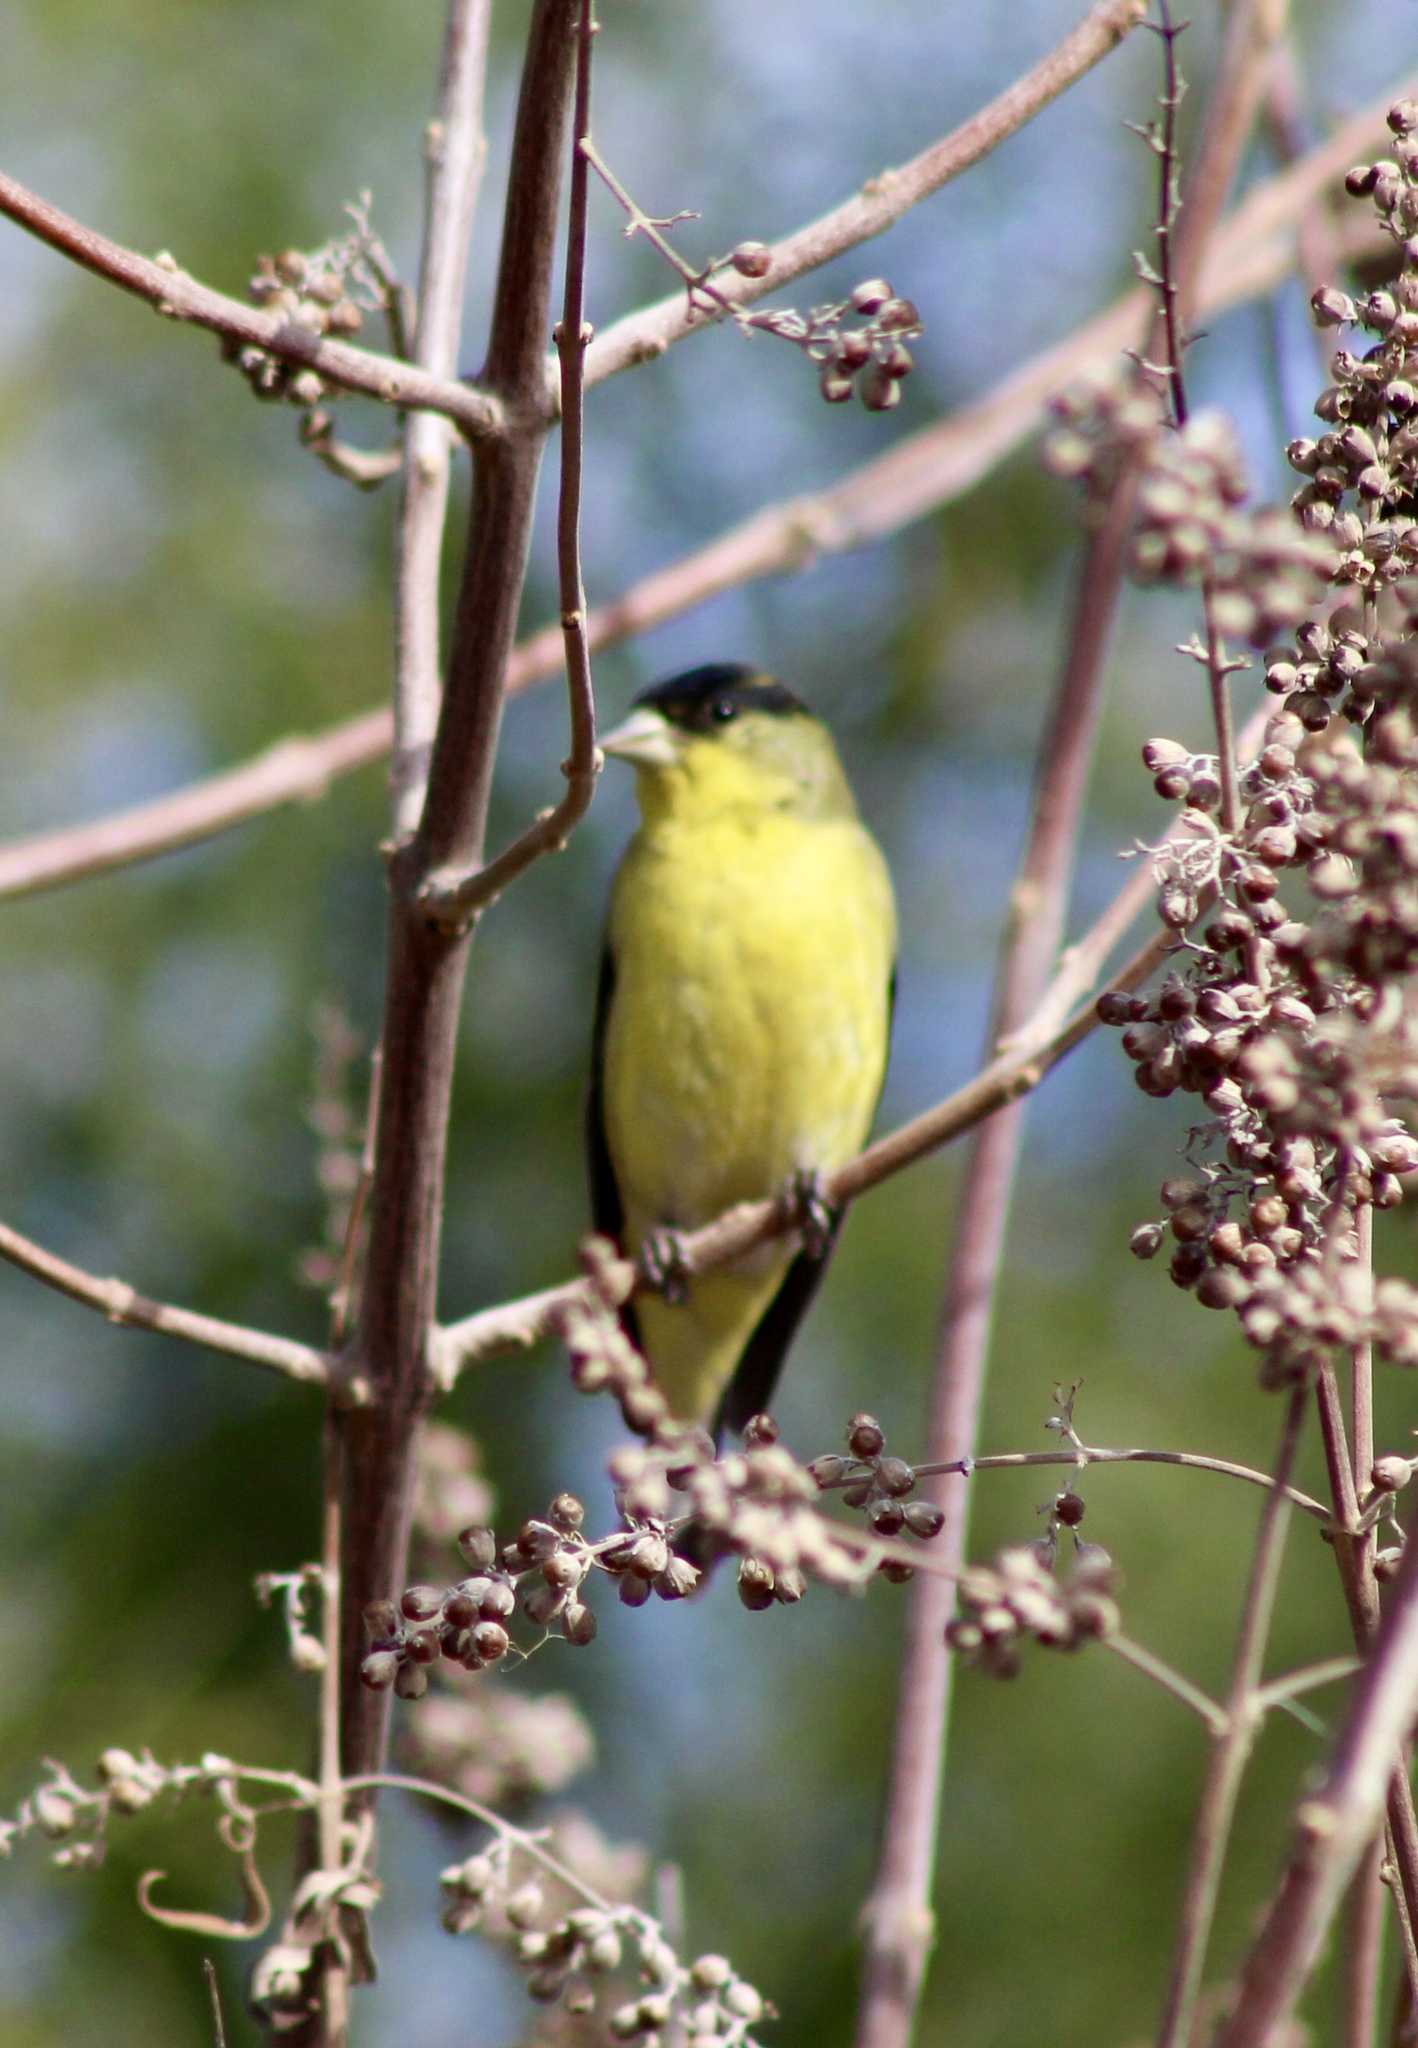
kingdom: Animalia
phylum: Chordata
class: Aves
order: Passeriformes
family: Fringillidae
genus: Spinus
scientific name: Spinus psaltria
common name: Lesser goldfinch
